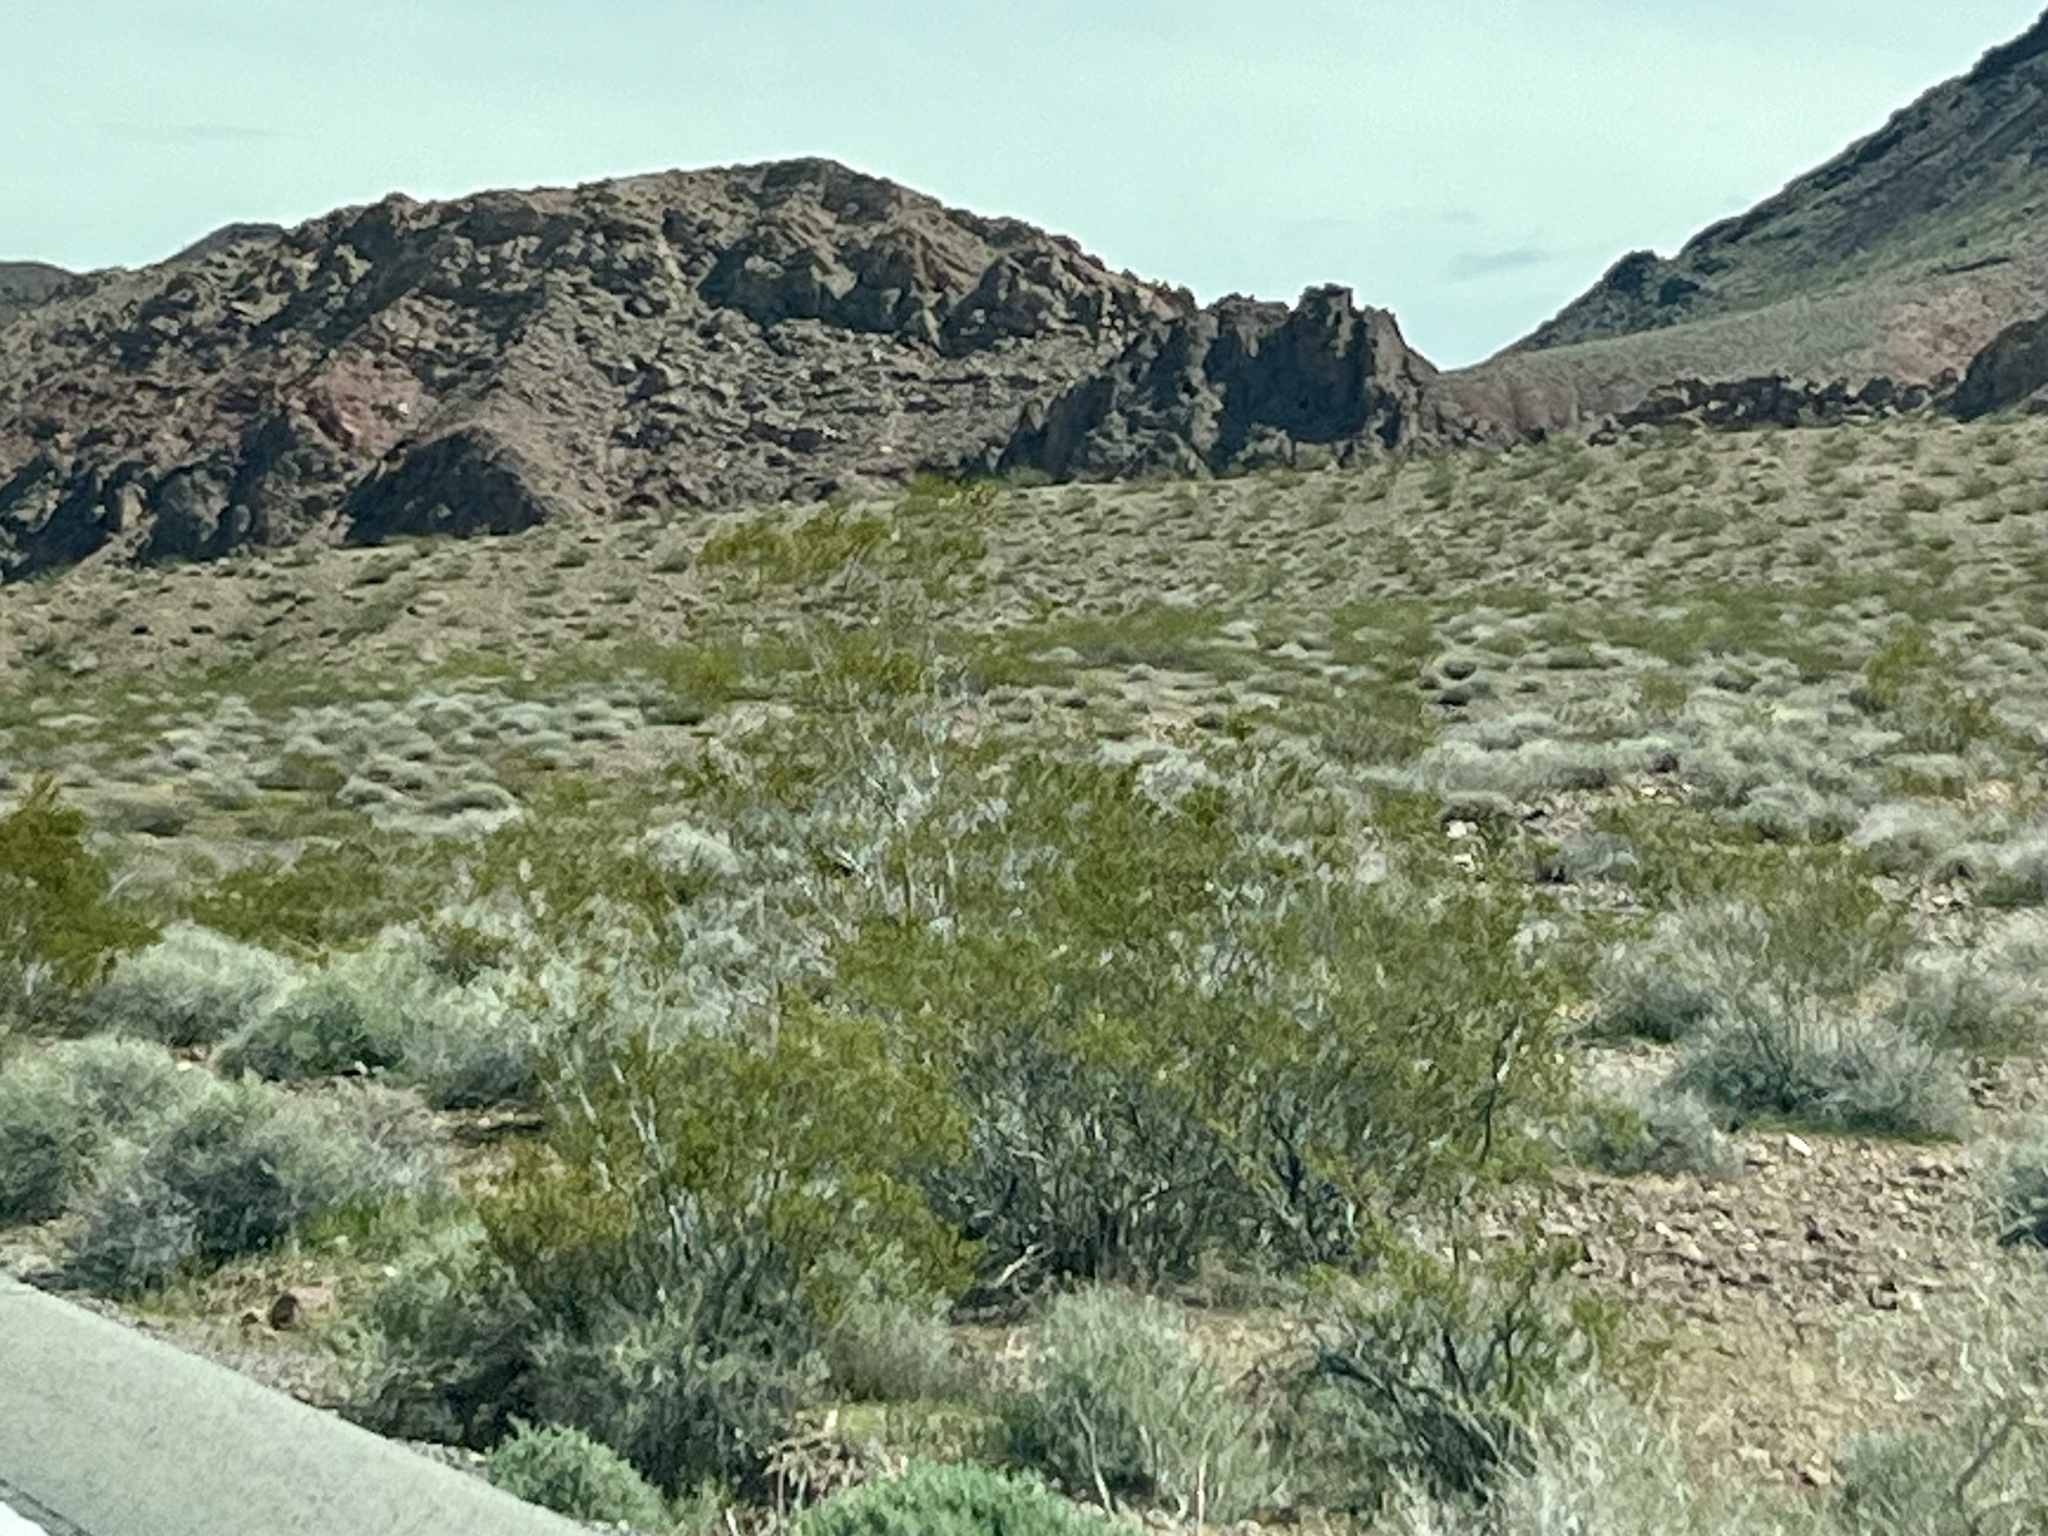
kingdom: Plantae
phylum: Tracheophyta
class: Magnoliopsida
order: Zygophyllales
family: Zygophyllaceae
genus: Larrea
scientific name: Larrea tridentata
